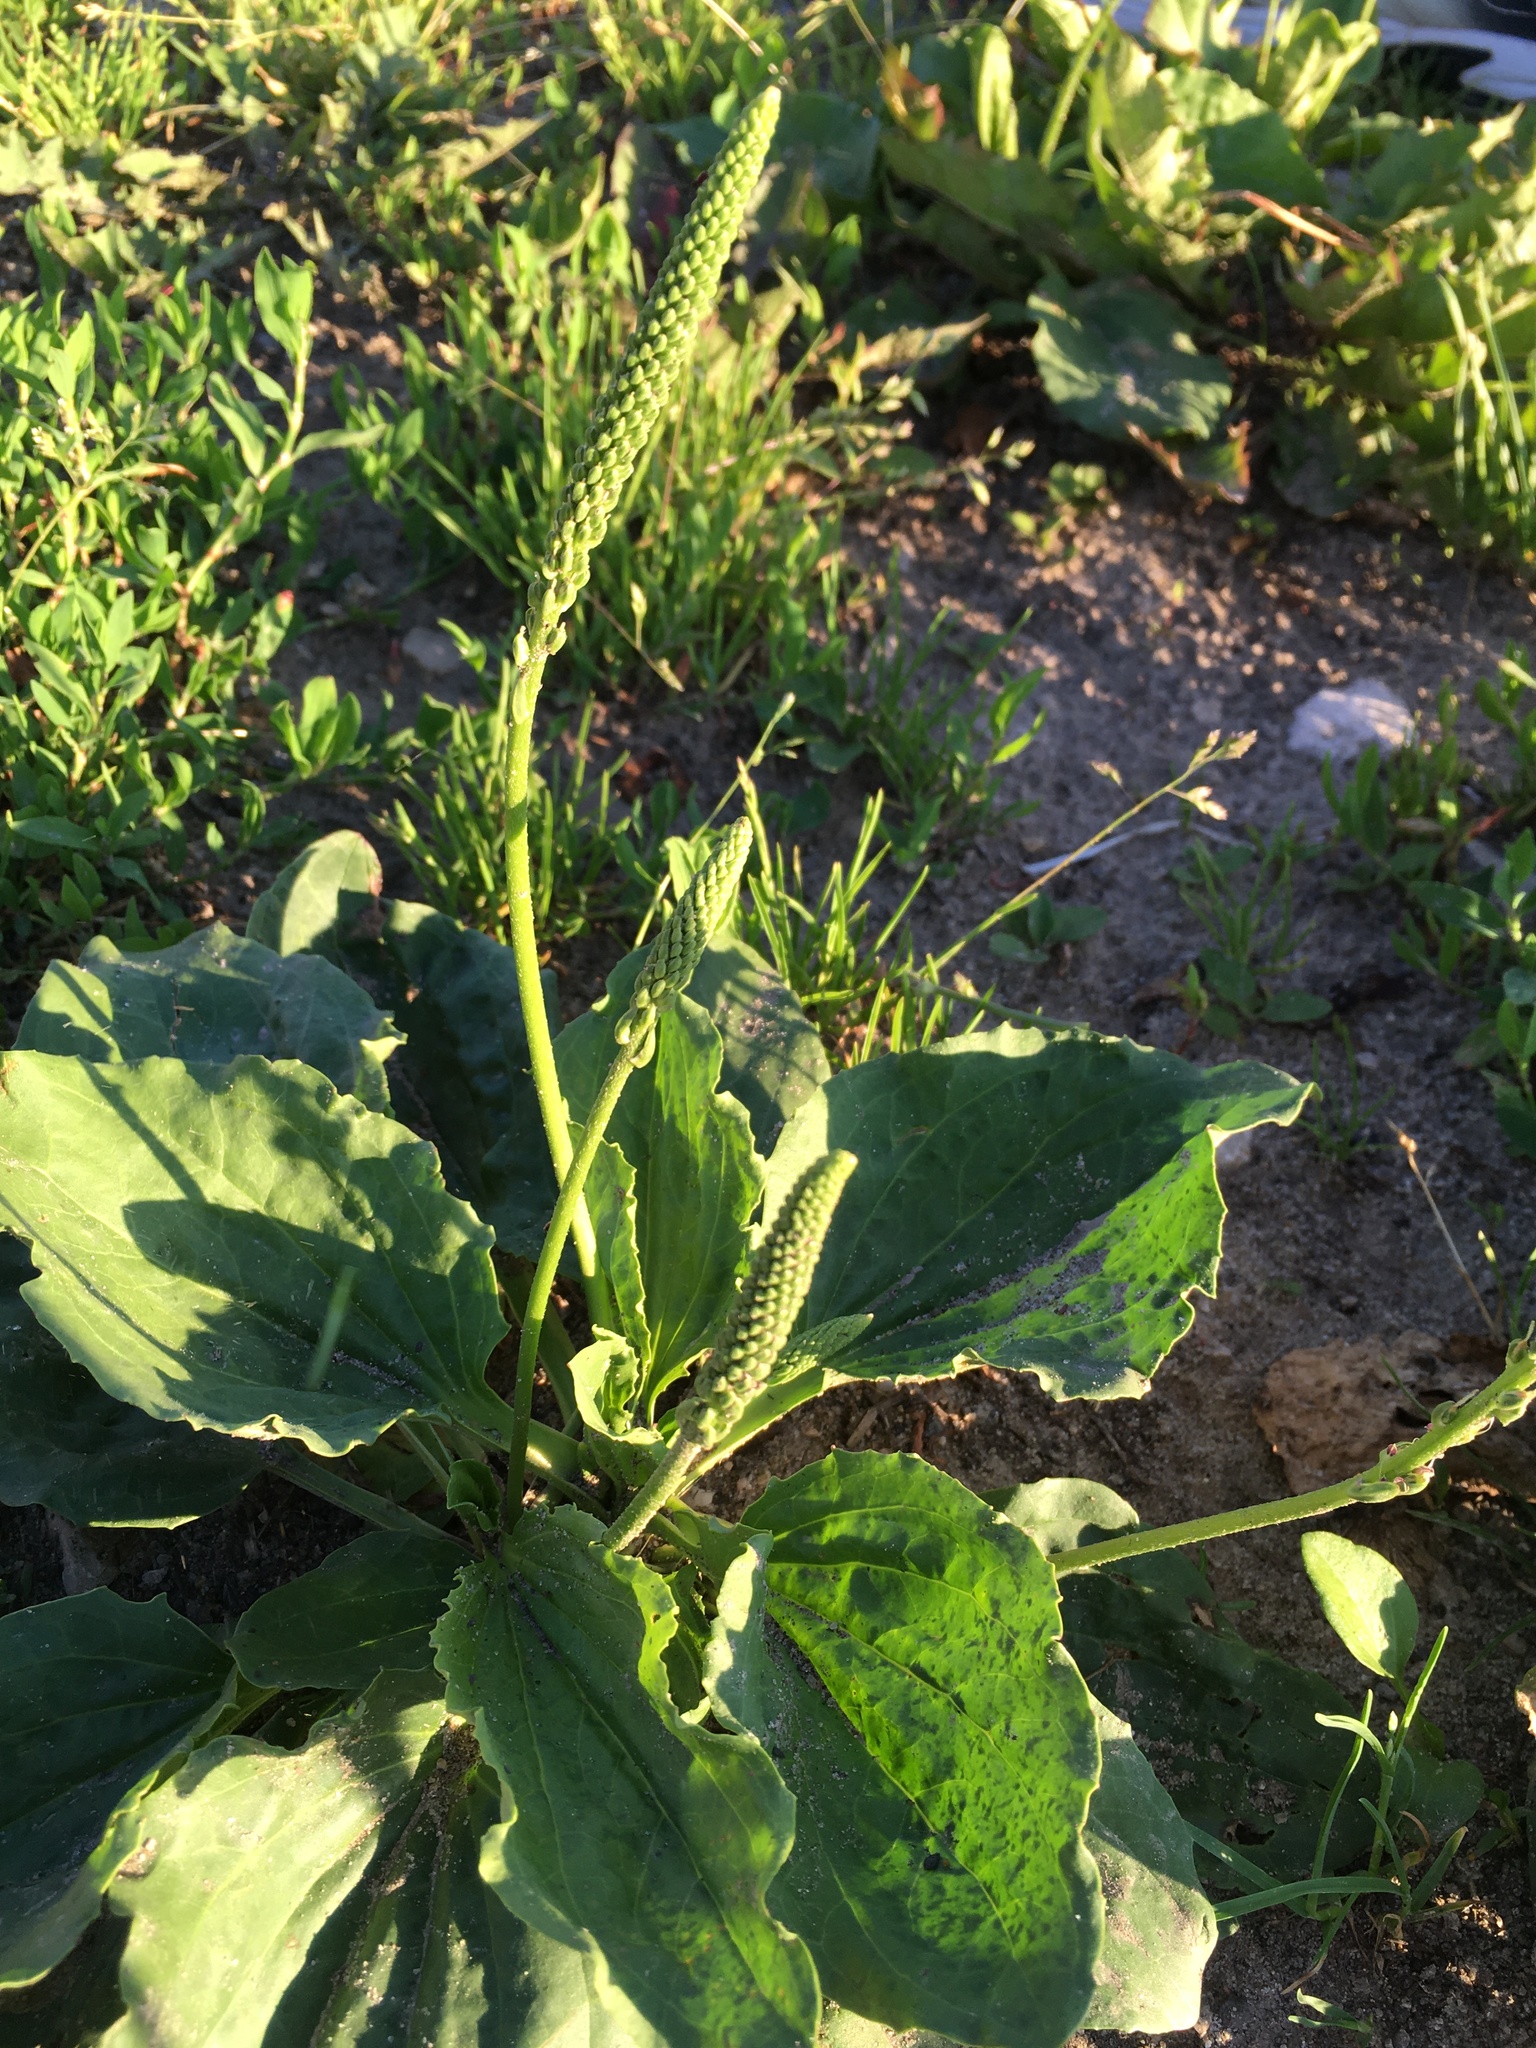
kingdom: Plantae
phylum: Tracheophyta
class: Magnoliopsida
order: Lamiales
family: Plantaginaceae
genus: Plantago
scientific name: Plantago major
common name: Common plantain
